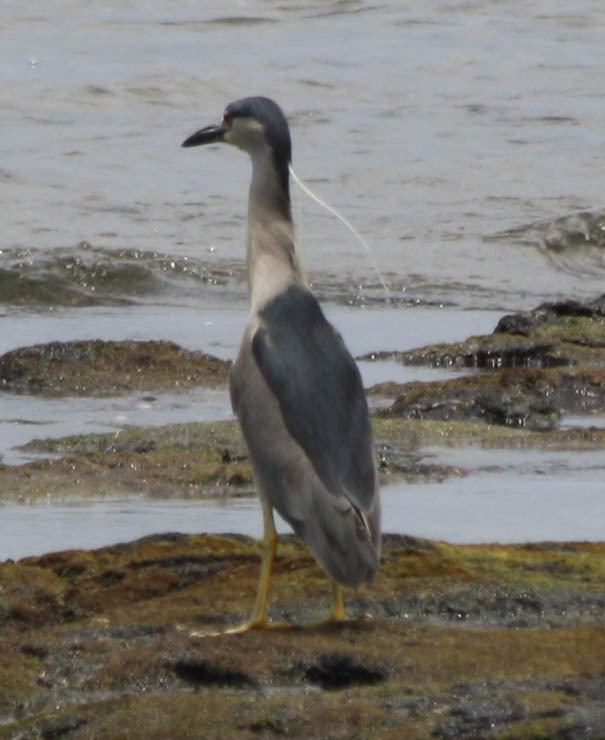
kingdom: Animalia
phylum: Chordata
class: Aves
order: Pelecaniformes
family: Ardeidae
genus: Nycticorax
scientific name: Nycticorax nycticorax
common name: Black-crowned night heron
